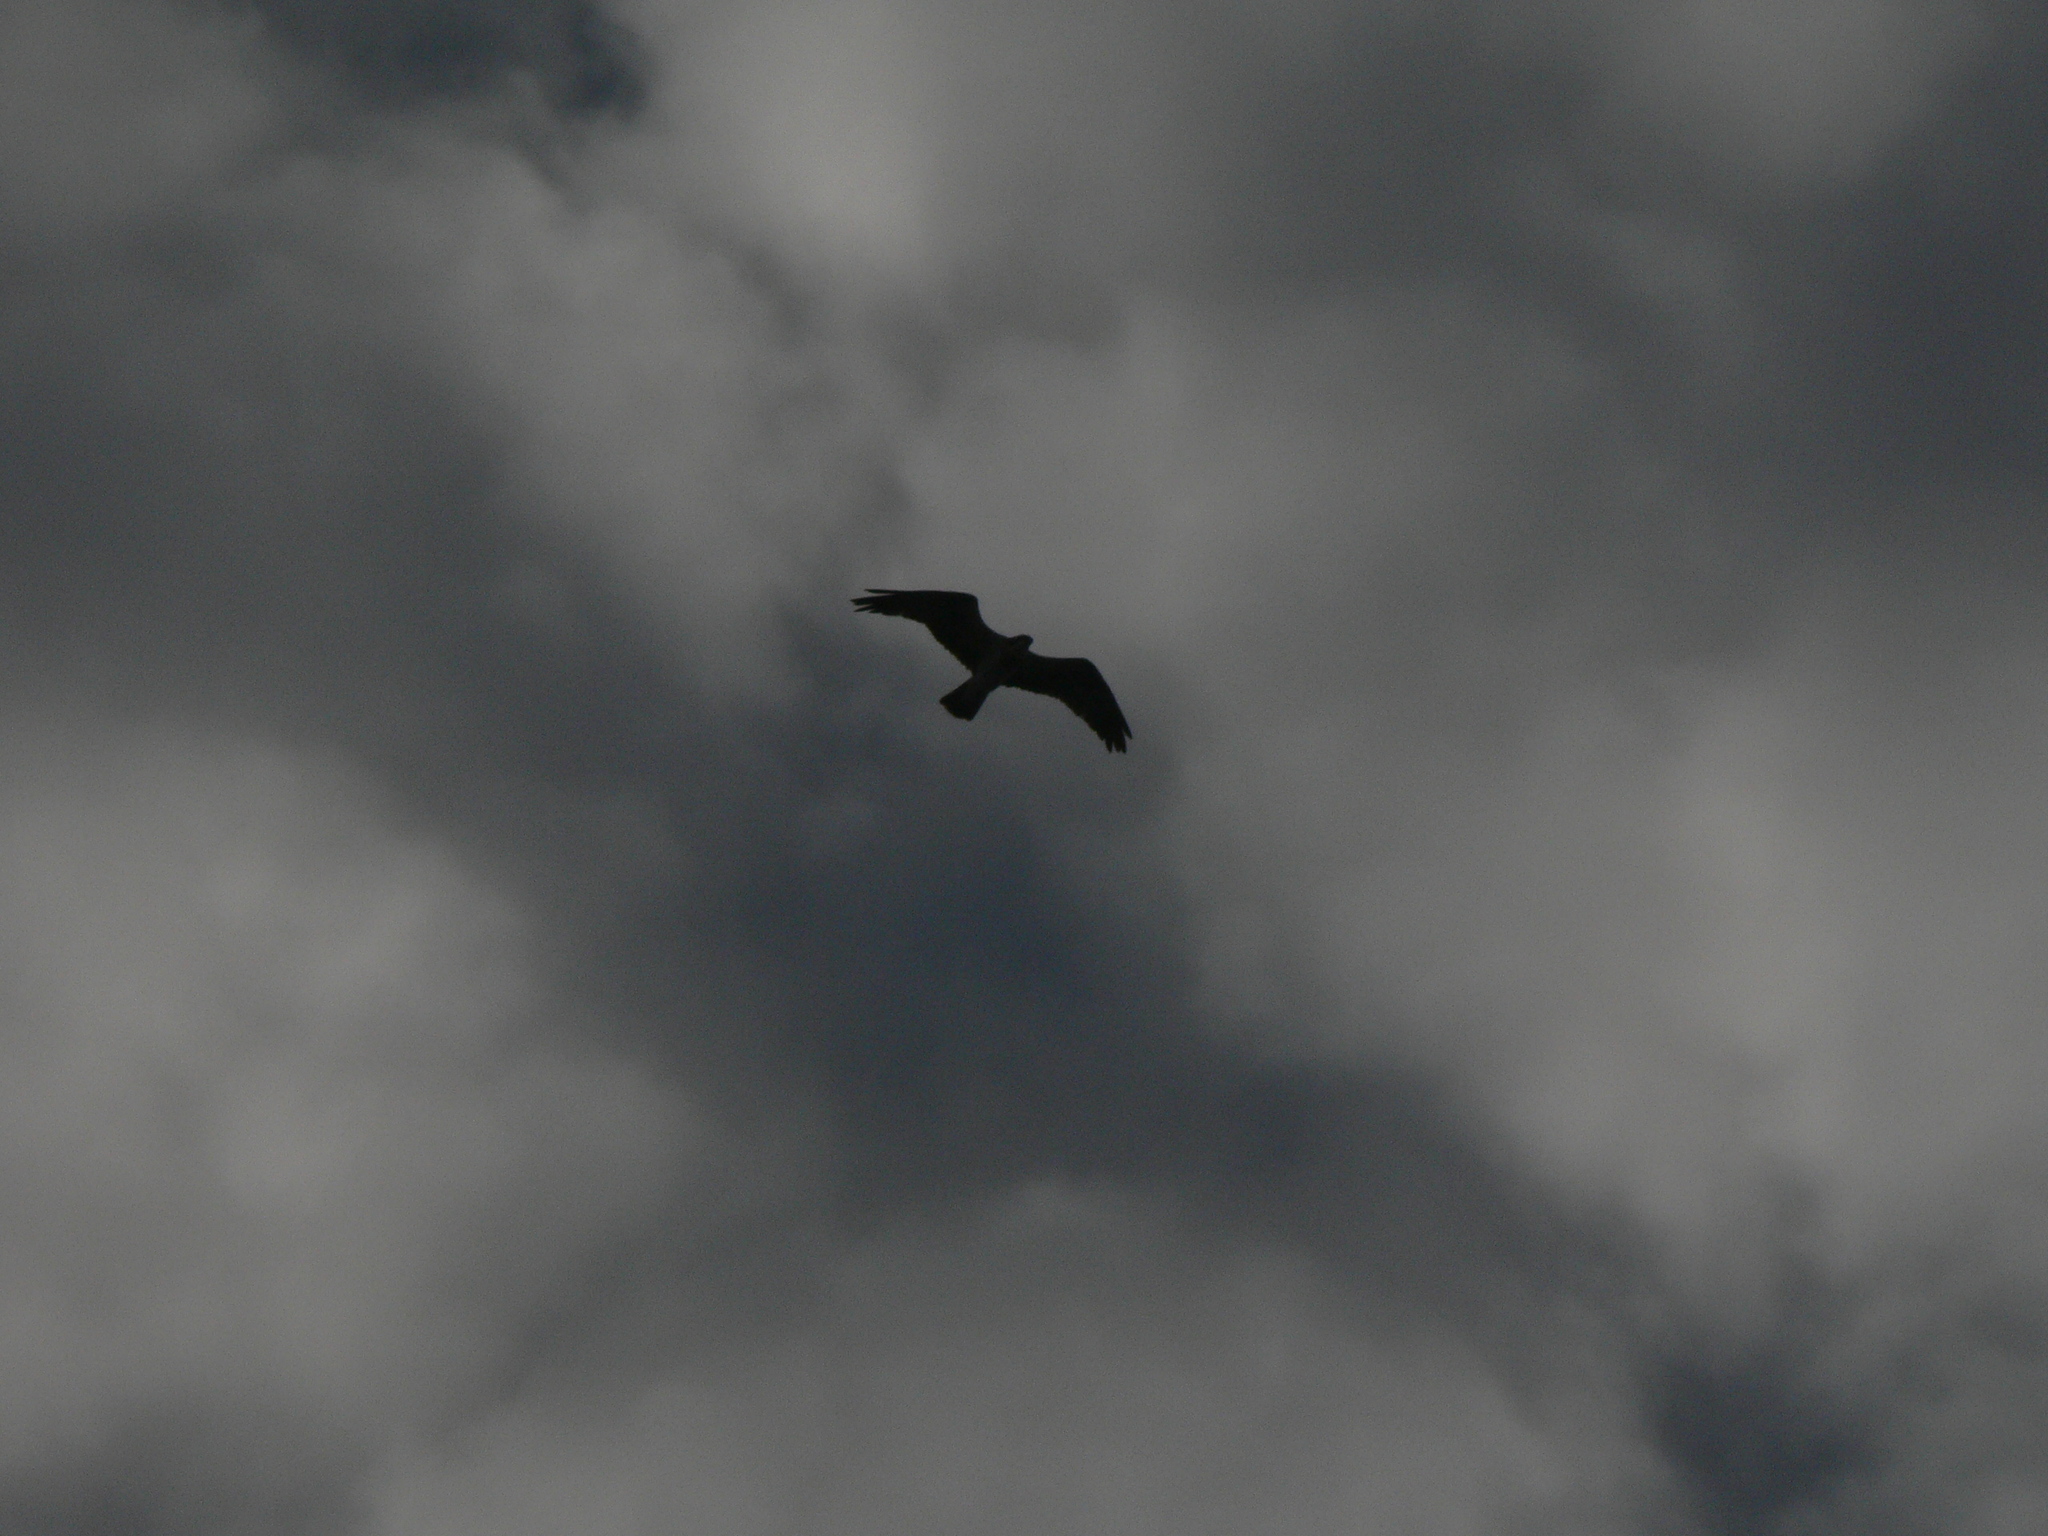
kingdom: Animalia
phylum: Chordata
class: Aves
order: Accipitriformes
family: Pandionidae
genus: Pandion
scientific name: Pandion haliaetus
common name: Osprey
